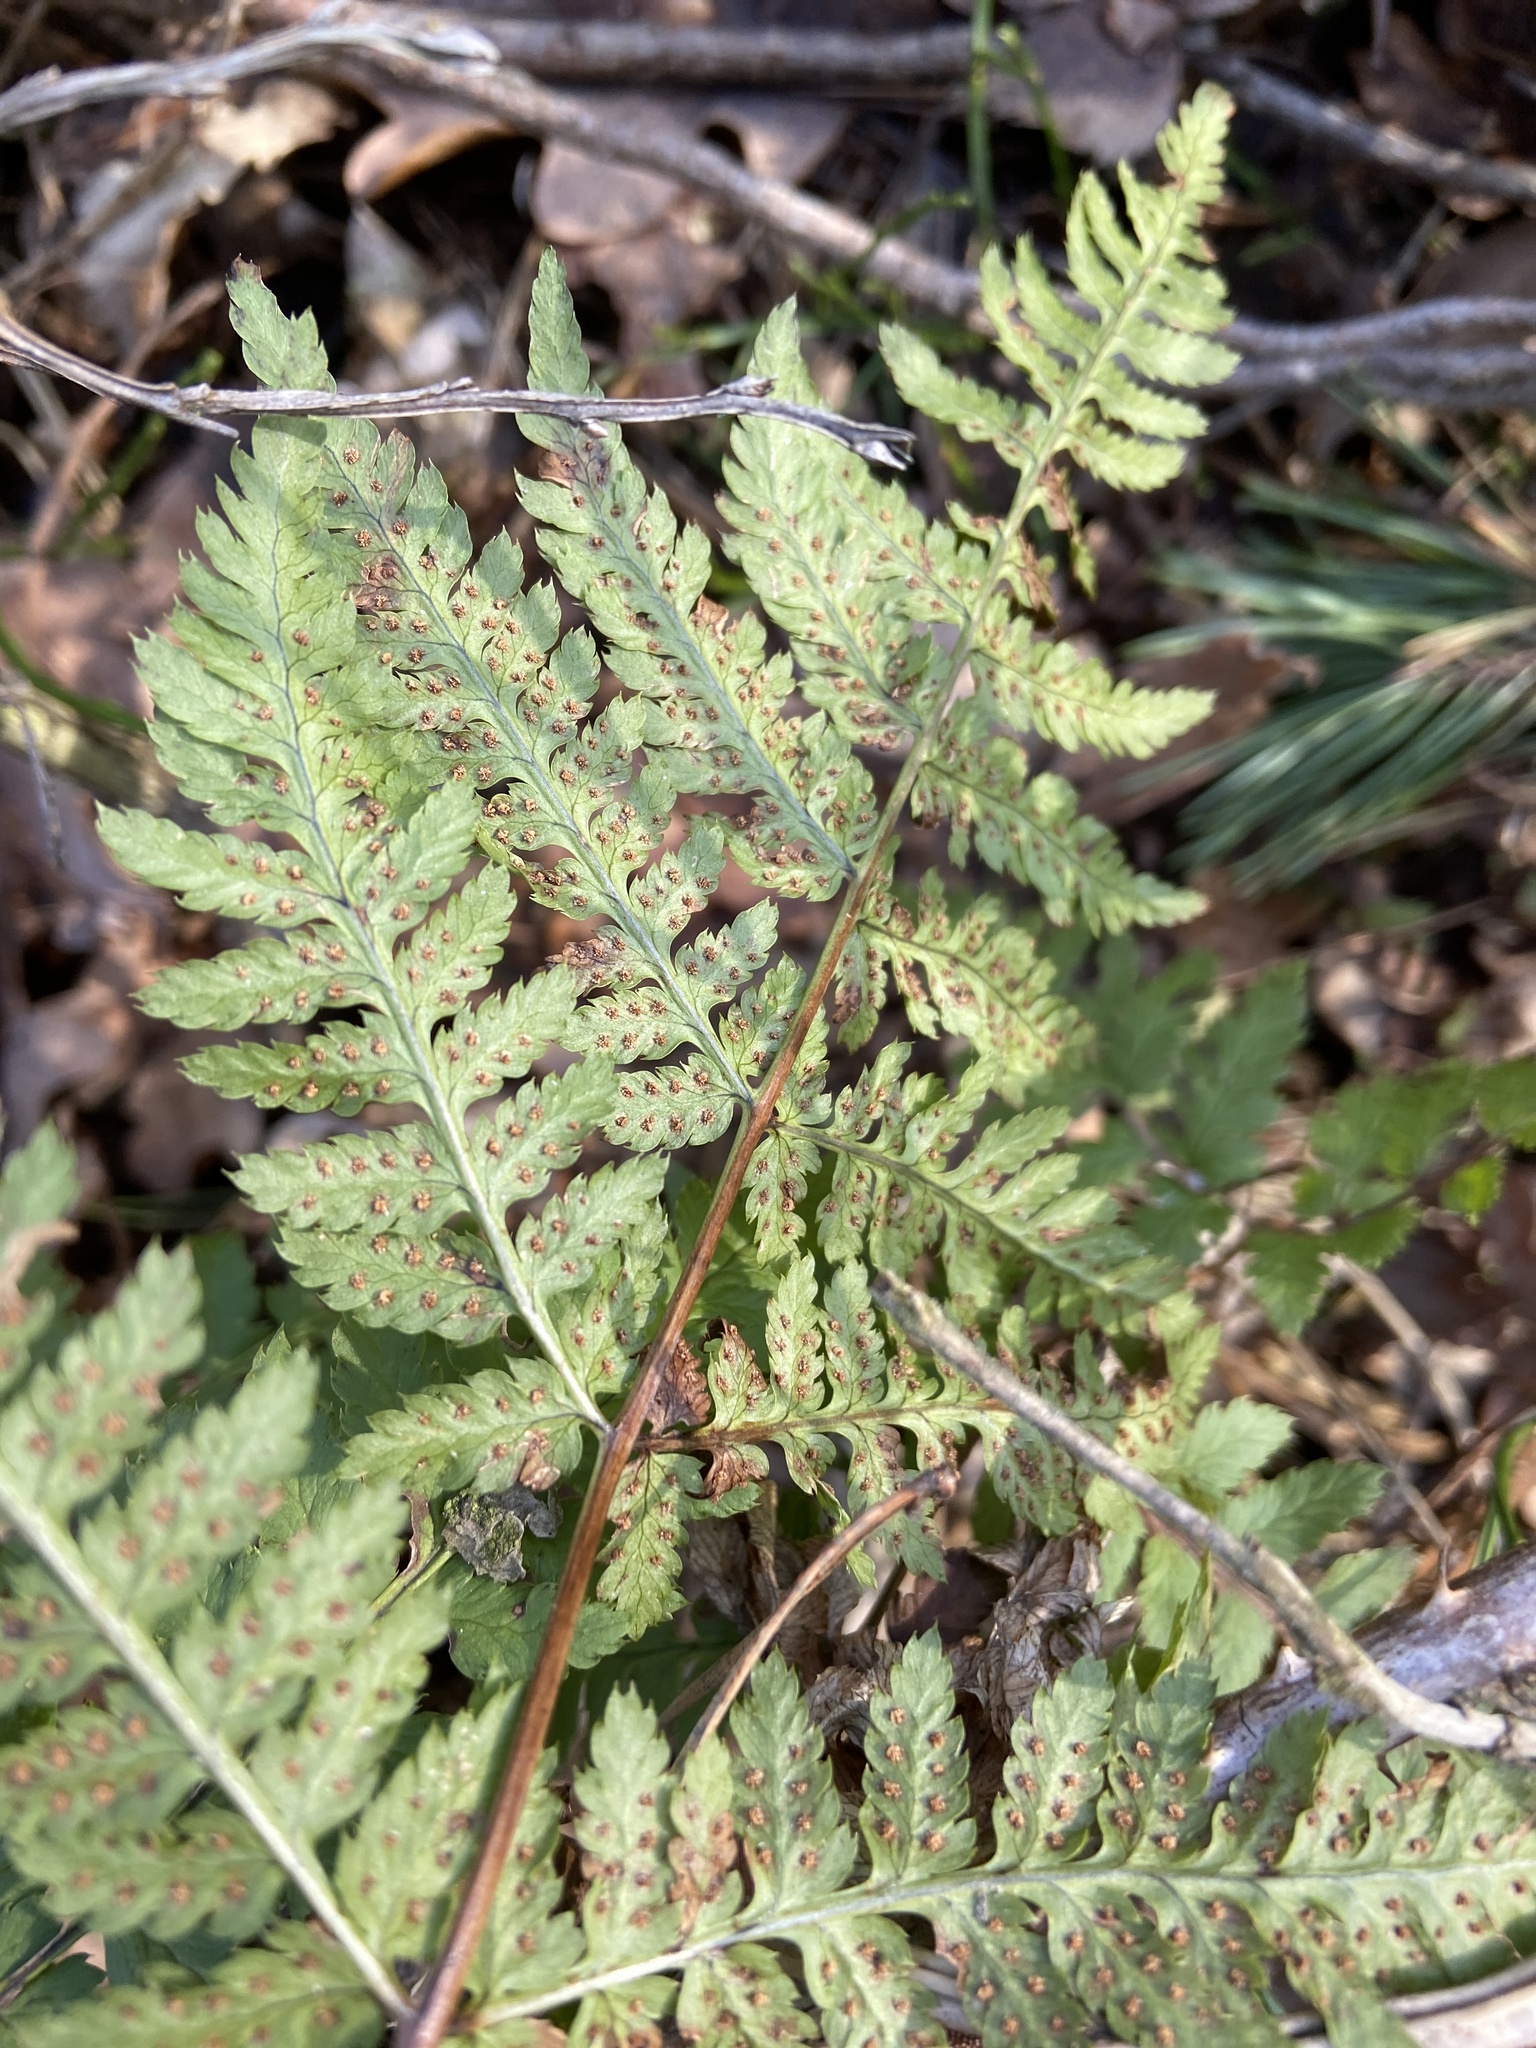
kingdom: Plantae
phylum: Tracheophyta
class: Polypodiopsida
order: Polypodiales
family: Dryopteridaceae
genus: Dryopteris
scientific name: Dryopteris carthusiana
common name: Narrow buckler-fern
